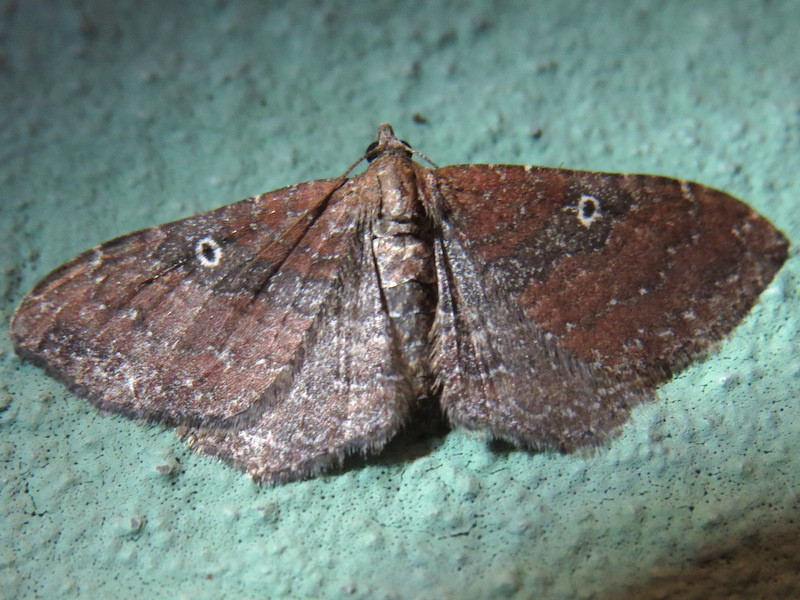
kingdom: Animalia
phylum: Arthropoda
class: Insecta
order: Lepidoptera
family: Geometridae
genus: Orthonama
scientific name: Orthonama obstipata
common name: The gem
